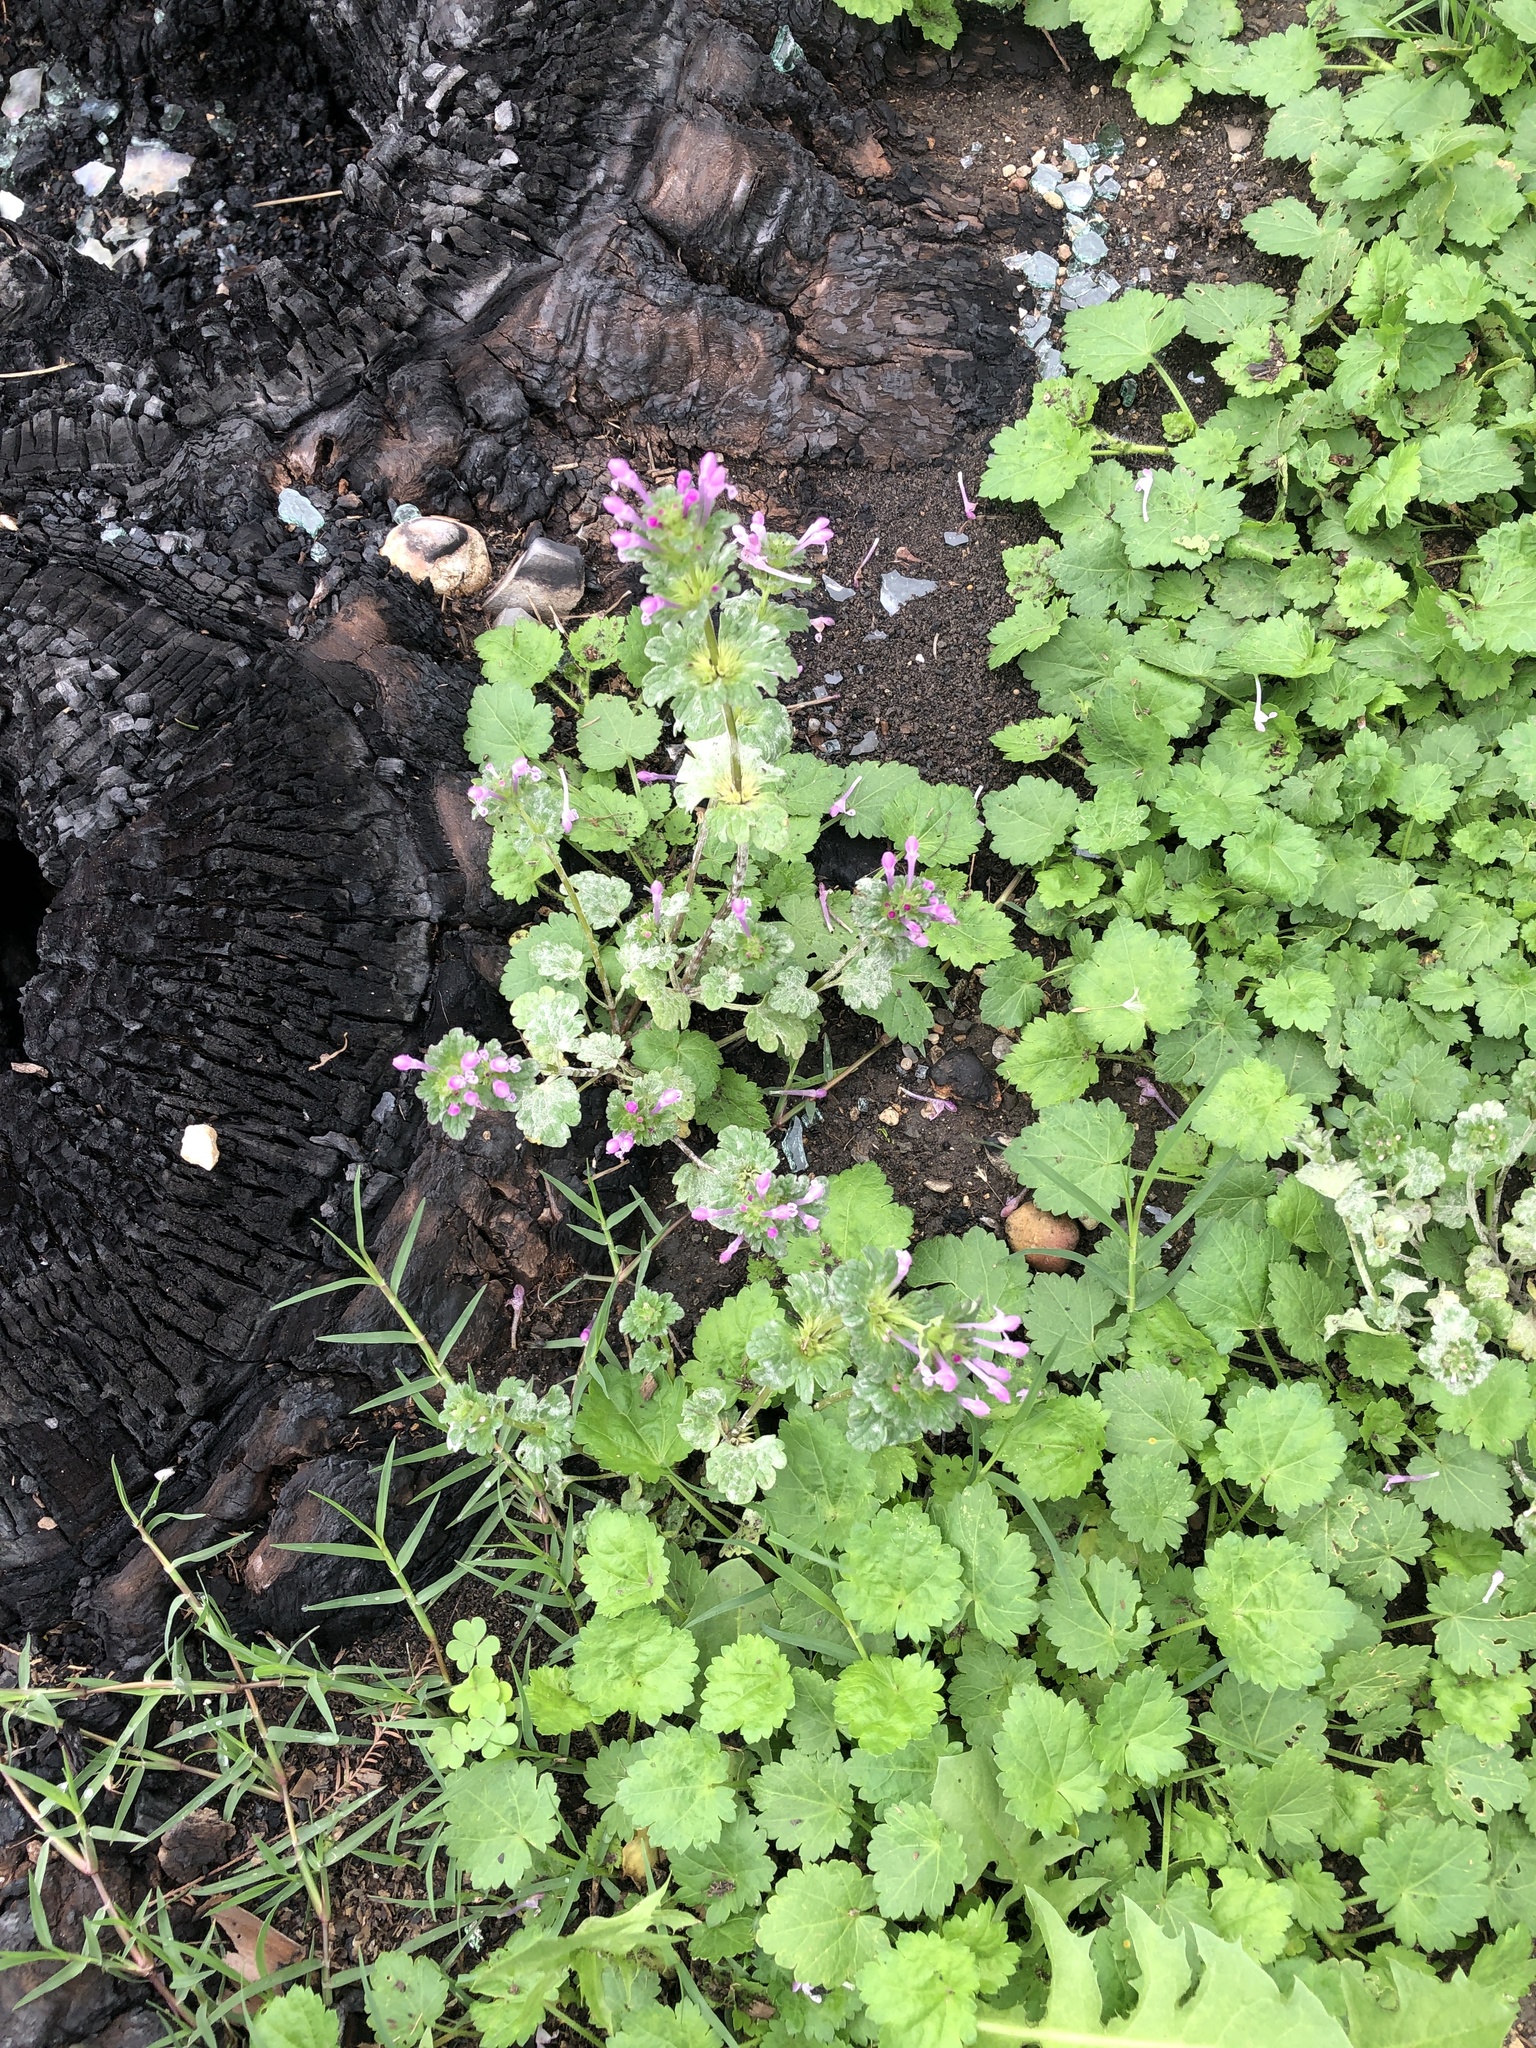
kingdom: Plantae
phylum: Tracheophyta
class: Magnoliopsida
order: Lamiales
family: Lamiaceae
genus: Lamium
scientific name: Lamium amplexicaule
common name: Henbit dead-nettle
